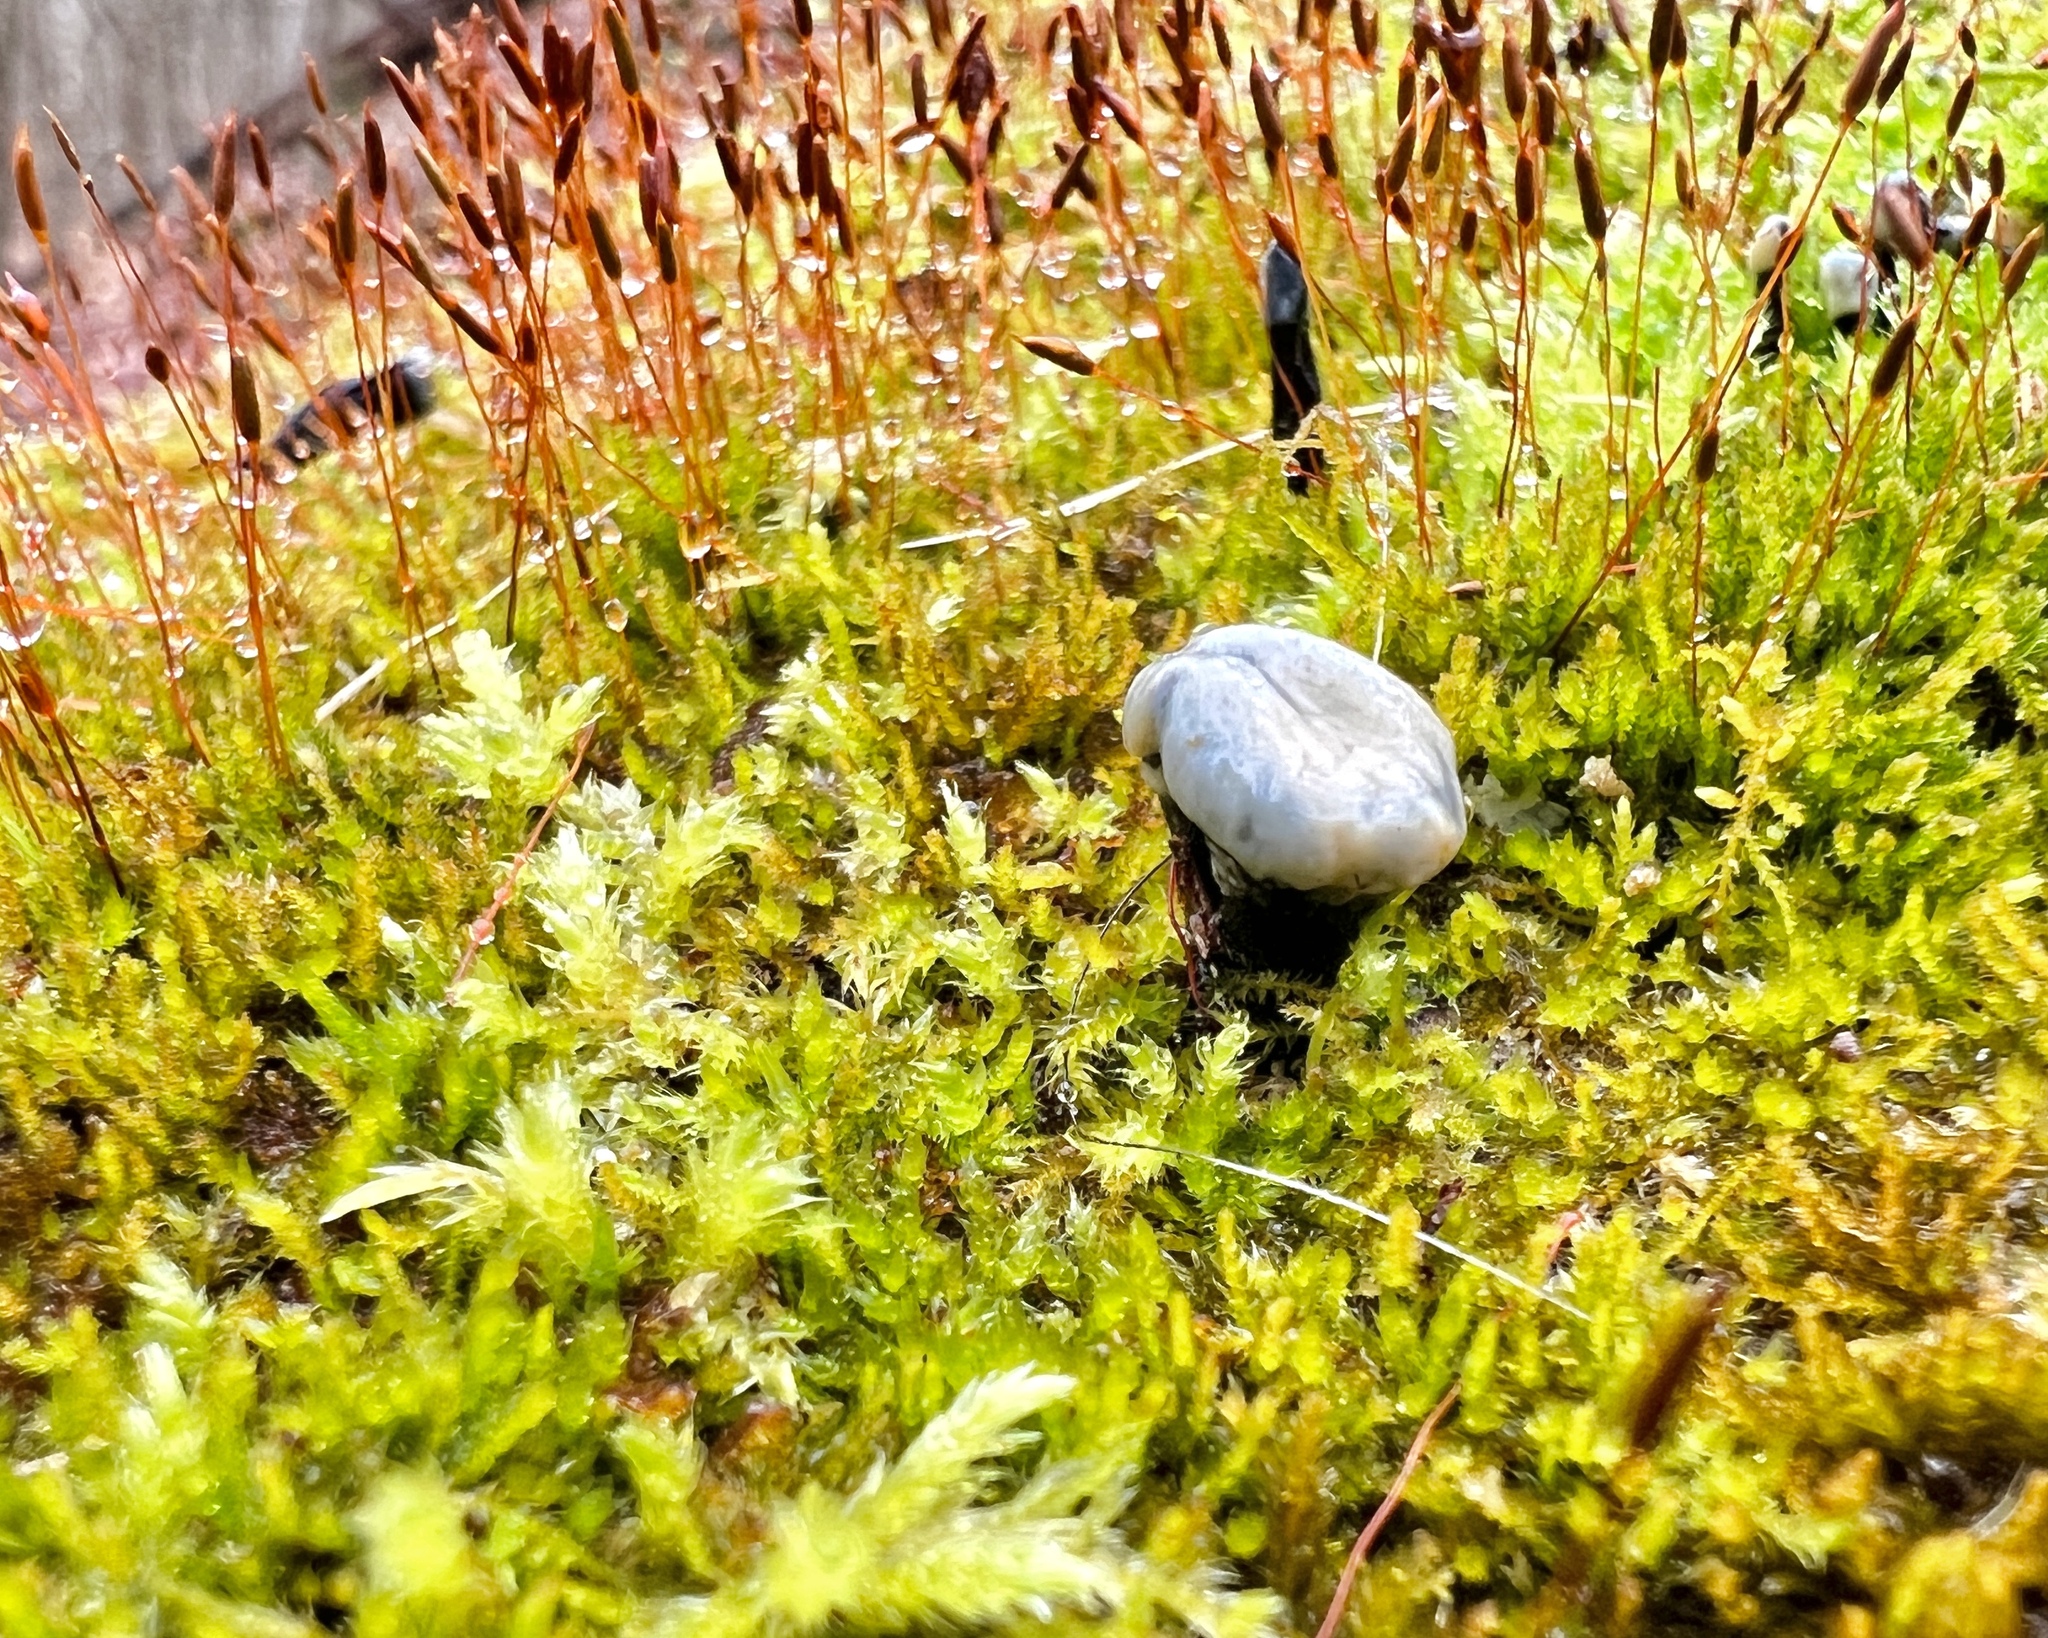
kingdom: Fungi
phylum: Ascomycota
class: Leotiomycetes
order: Helotiales
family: Bulgariaceae
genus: Holwaya
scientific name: Holwaya mucida
